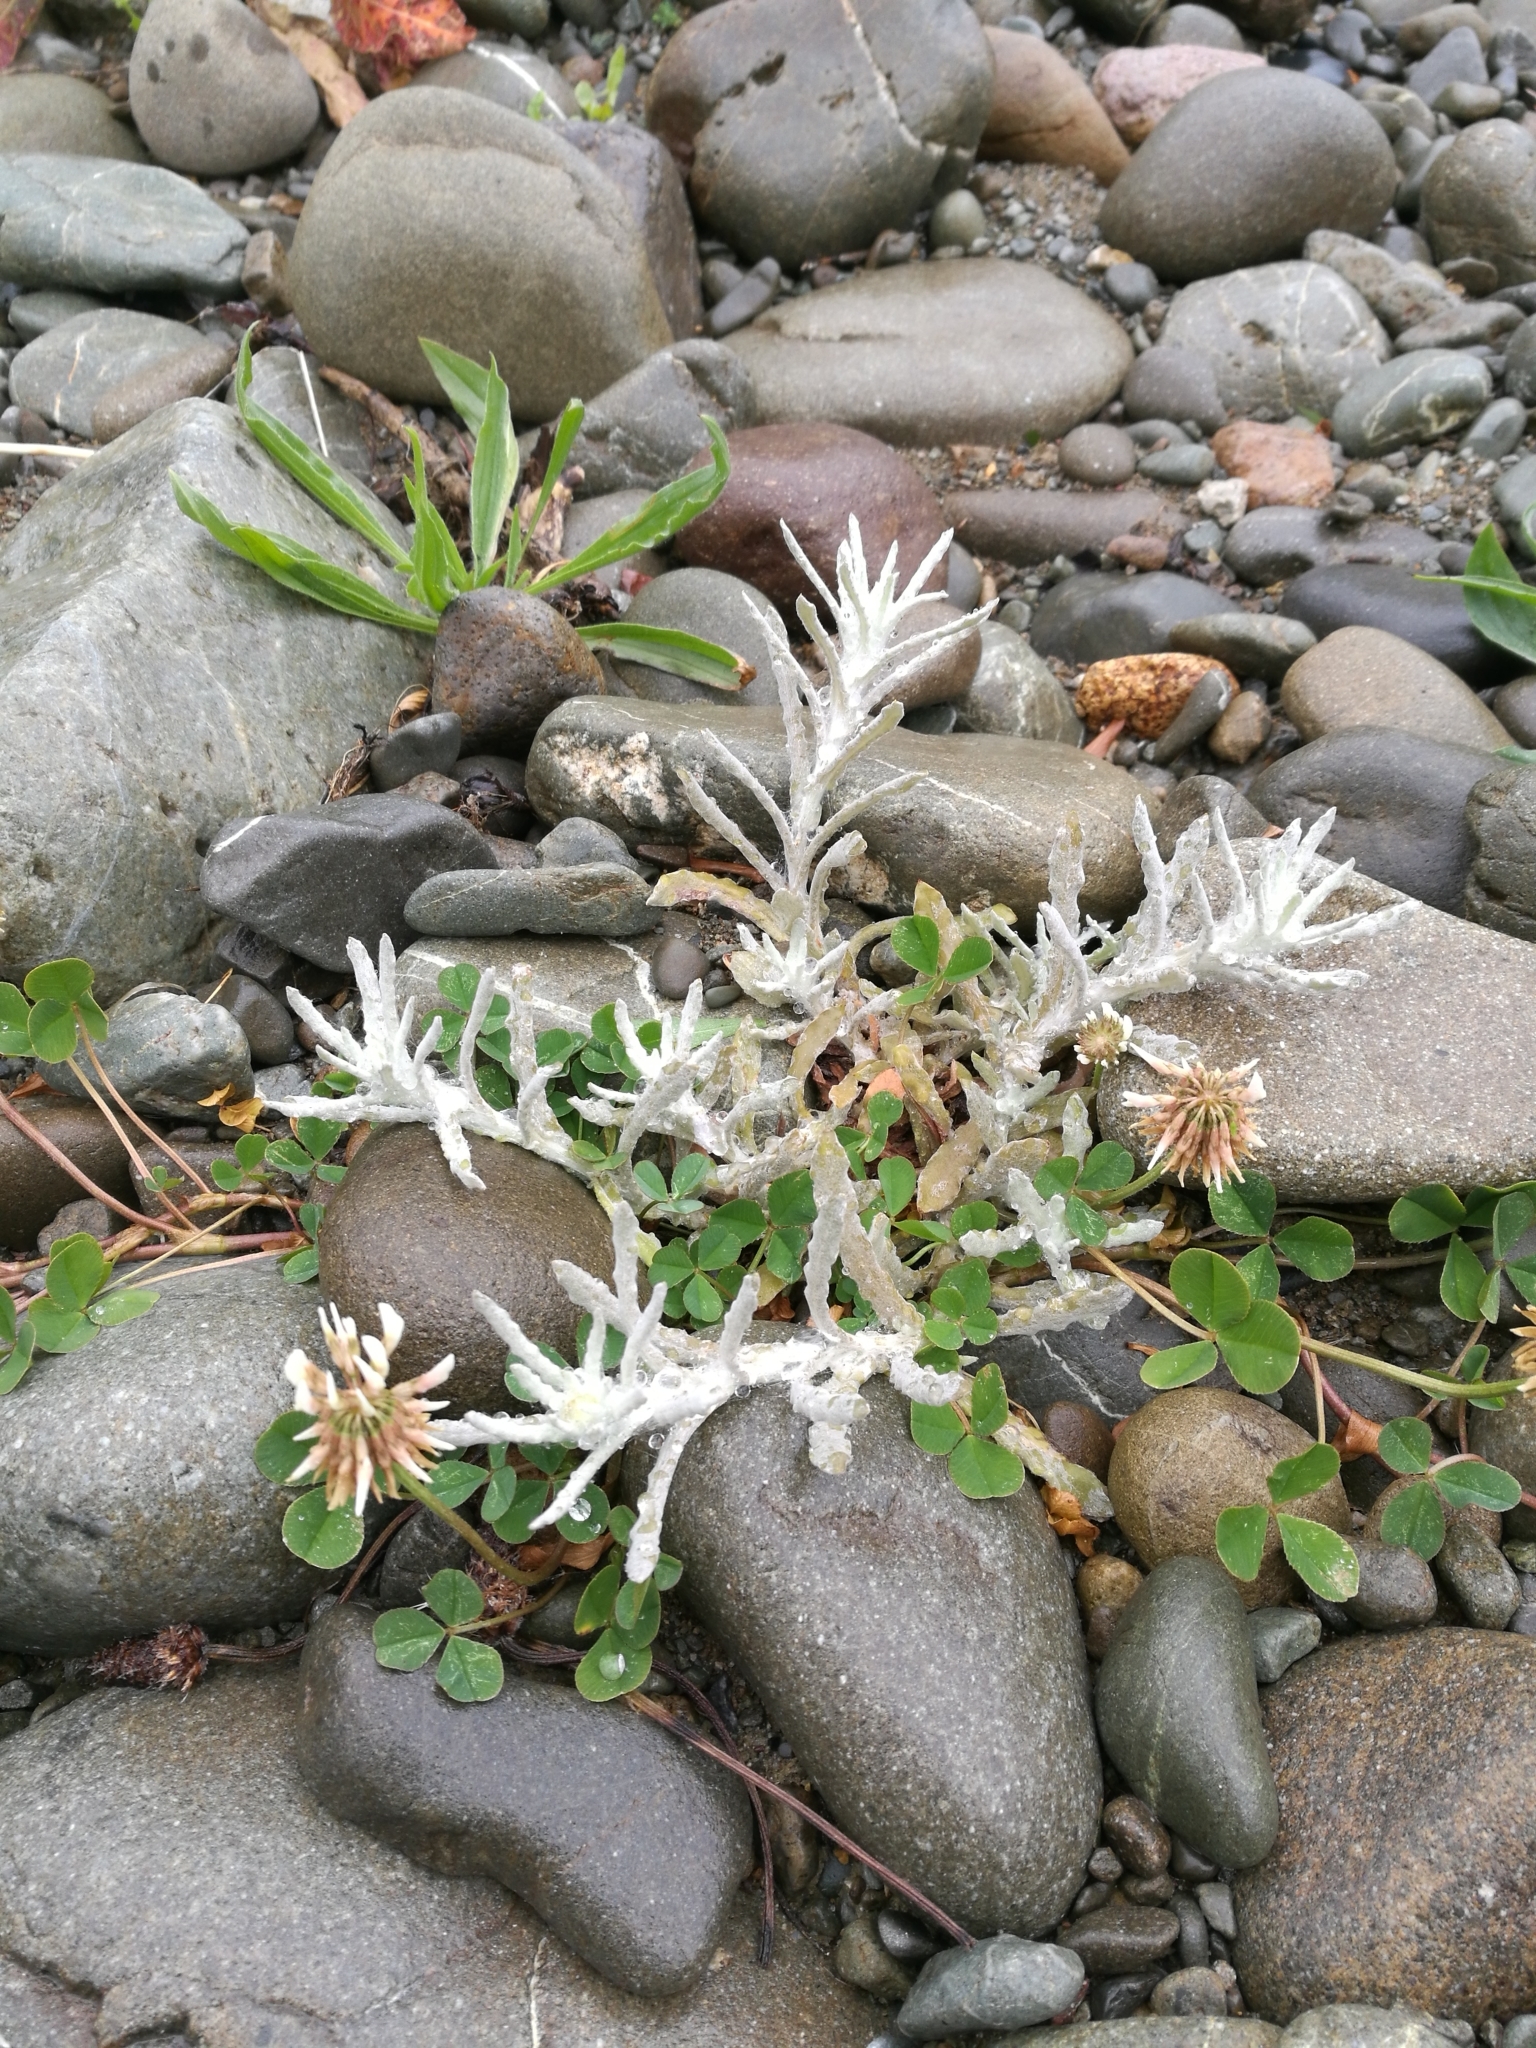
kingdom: Plantae
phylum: Tracheophyta
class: Magnoliopsida
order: Asterales
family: Asteraceae
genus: Helichrysum
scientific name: Helichrysum luteoalbum
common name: Daisy
